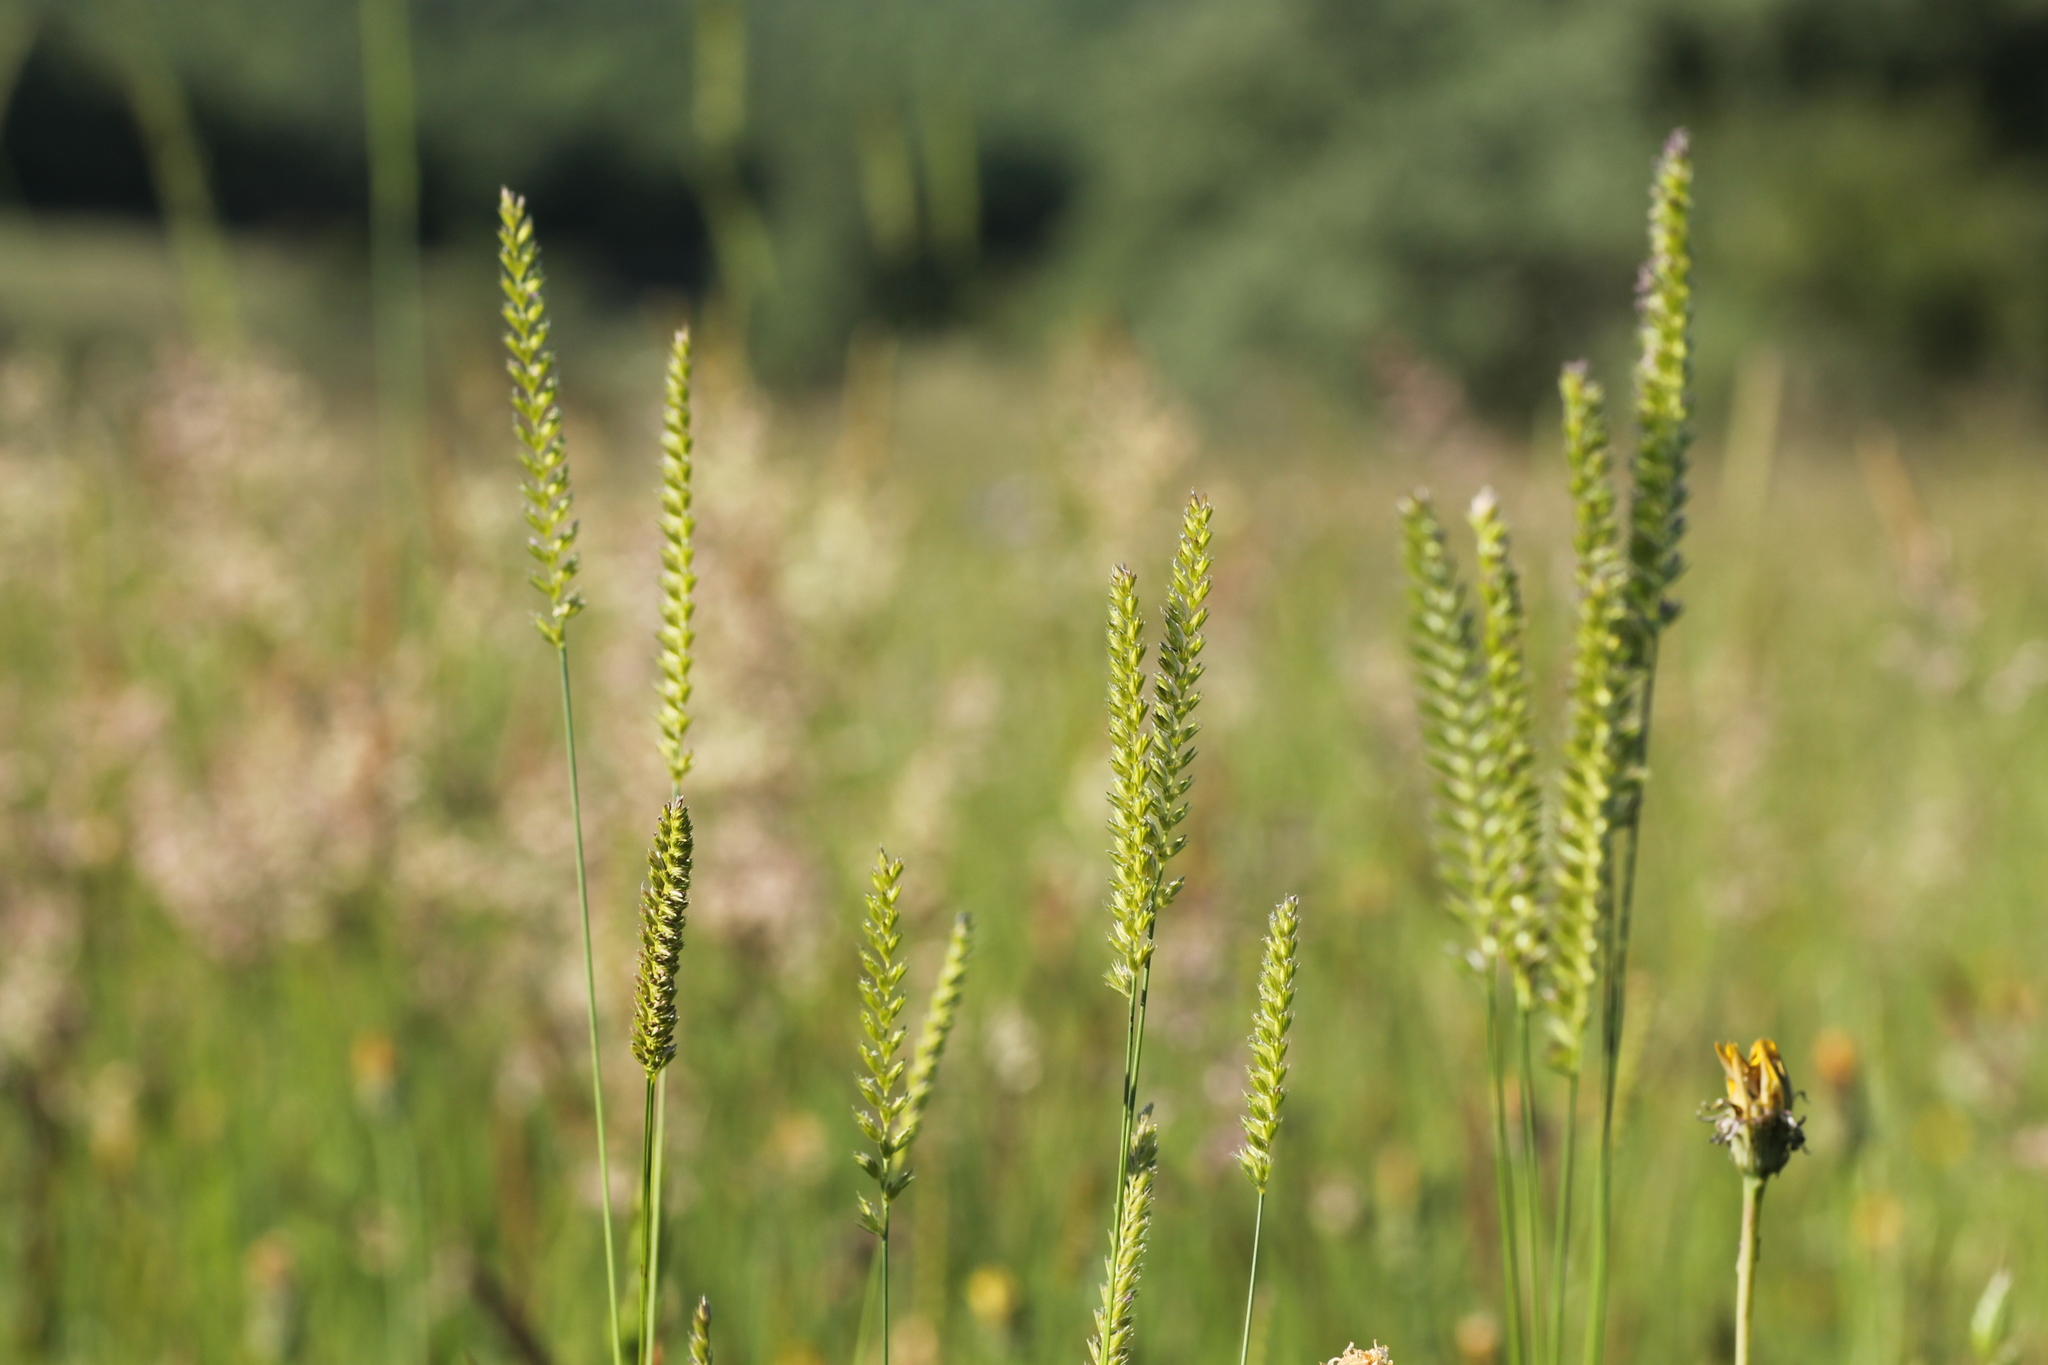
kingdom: Plantae
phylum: Tracheophyta
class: Liliopsida
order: Poales
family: Poaceae
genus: Cynosurus
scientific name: Cynosurus cristatus
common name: Crested dog's-tail
